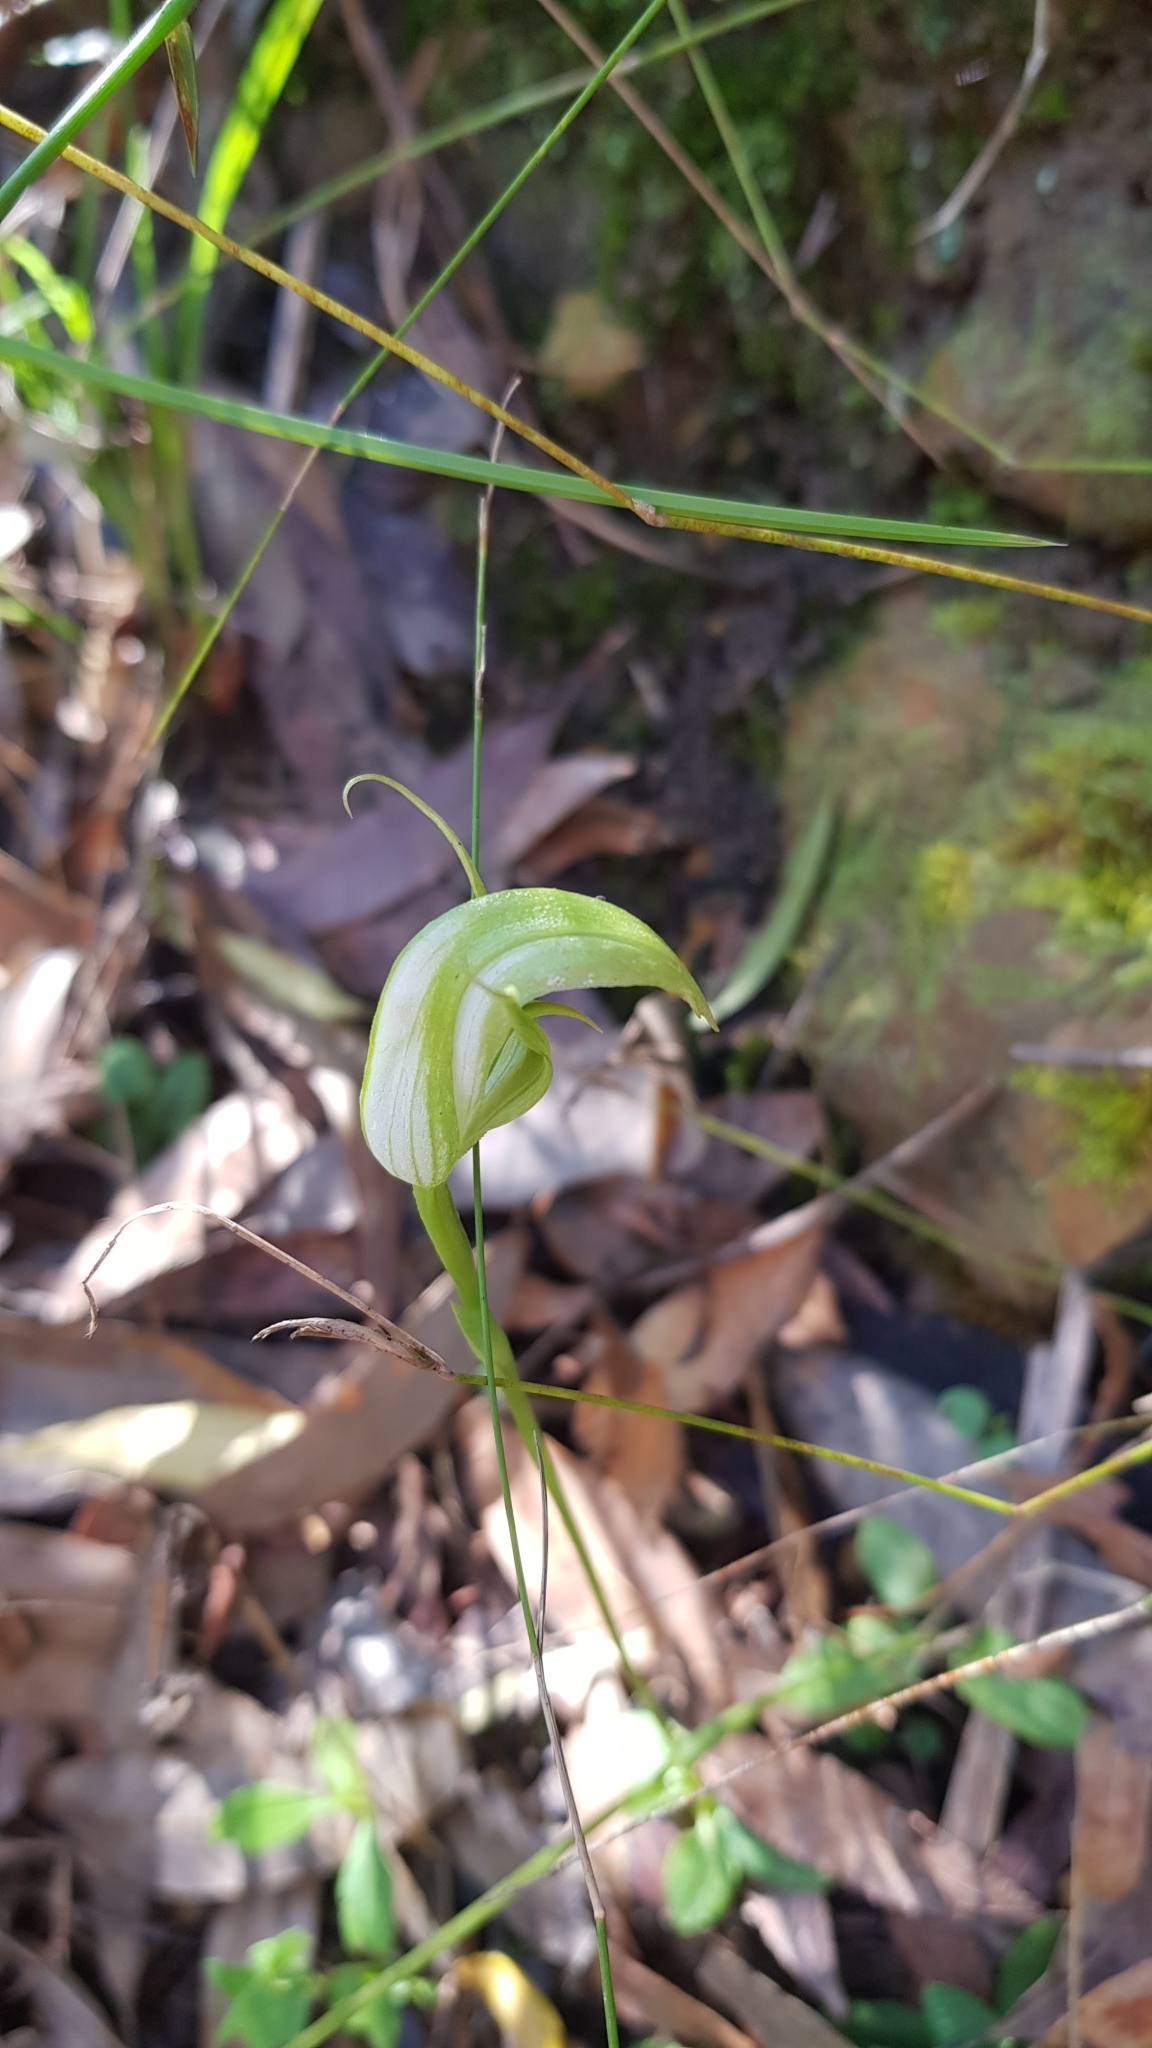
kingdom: Plantae
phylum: Tracheophyta
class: Liliopsida
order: Asparagales
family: Orchidaceae
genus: Pterostylis
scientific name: Pterostylis acuminata
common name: Pointed greenhood
